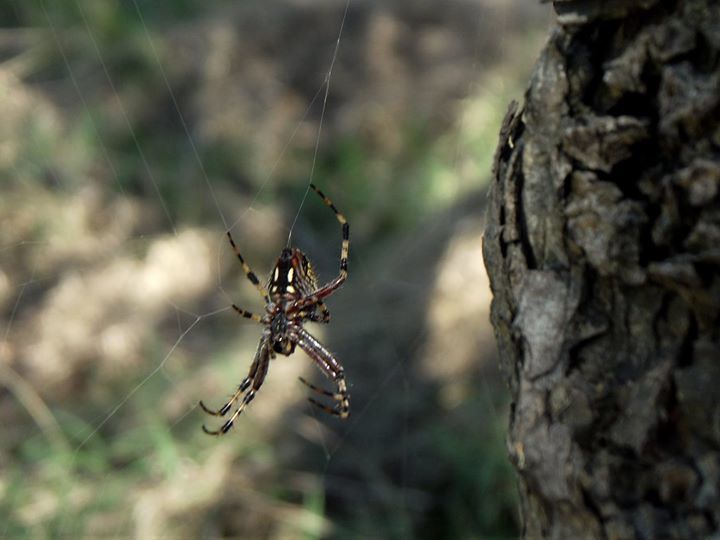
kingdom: Animalia
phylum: Arthropoda
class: Arachnida
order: Araneae
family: Araneidae
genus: Neoscona
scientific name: Neoscona oaxacensis
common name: Orb weavers
